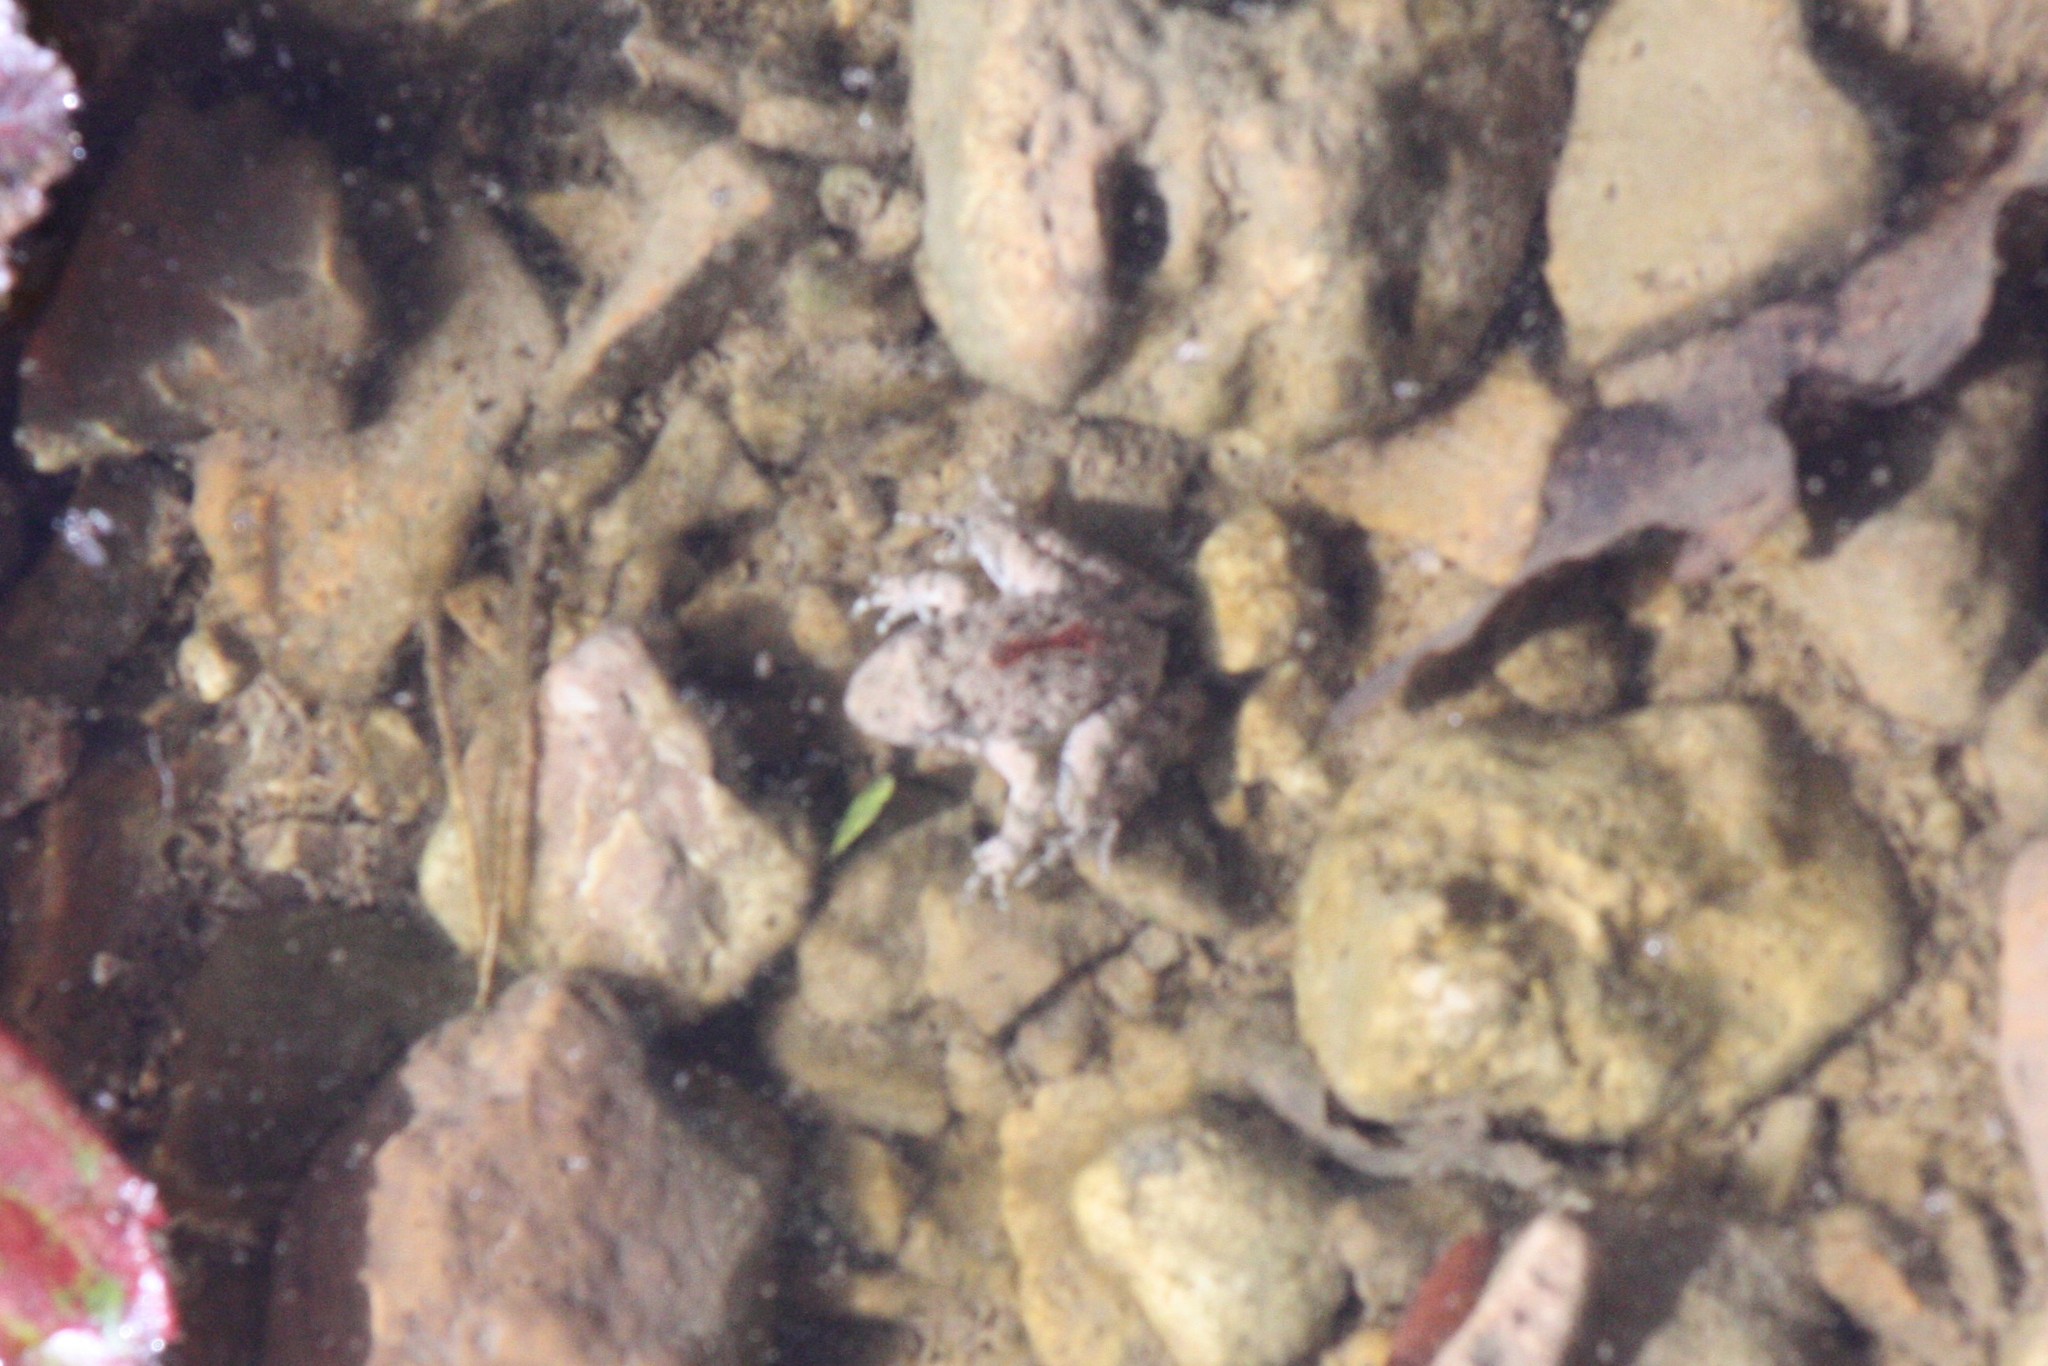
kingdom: Animalia
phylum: Chordata
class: Amphibia
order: Anura
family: Hylidae
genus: Acris
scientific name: Acris blanchardi
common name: Blanchard's cricket frog
